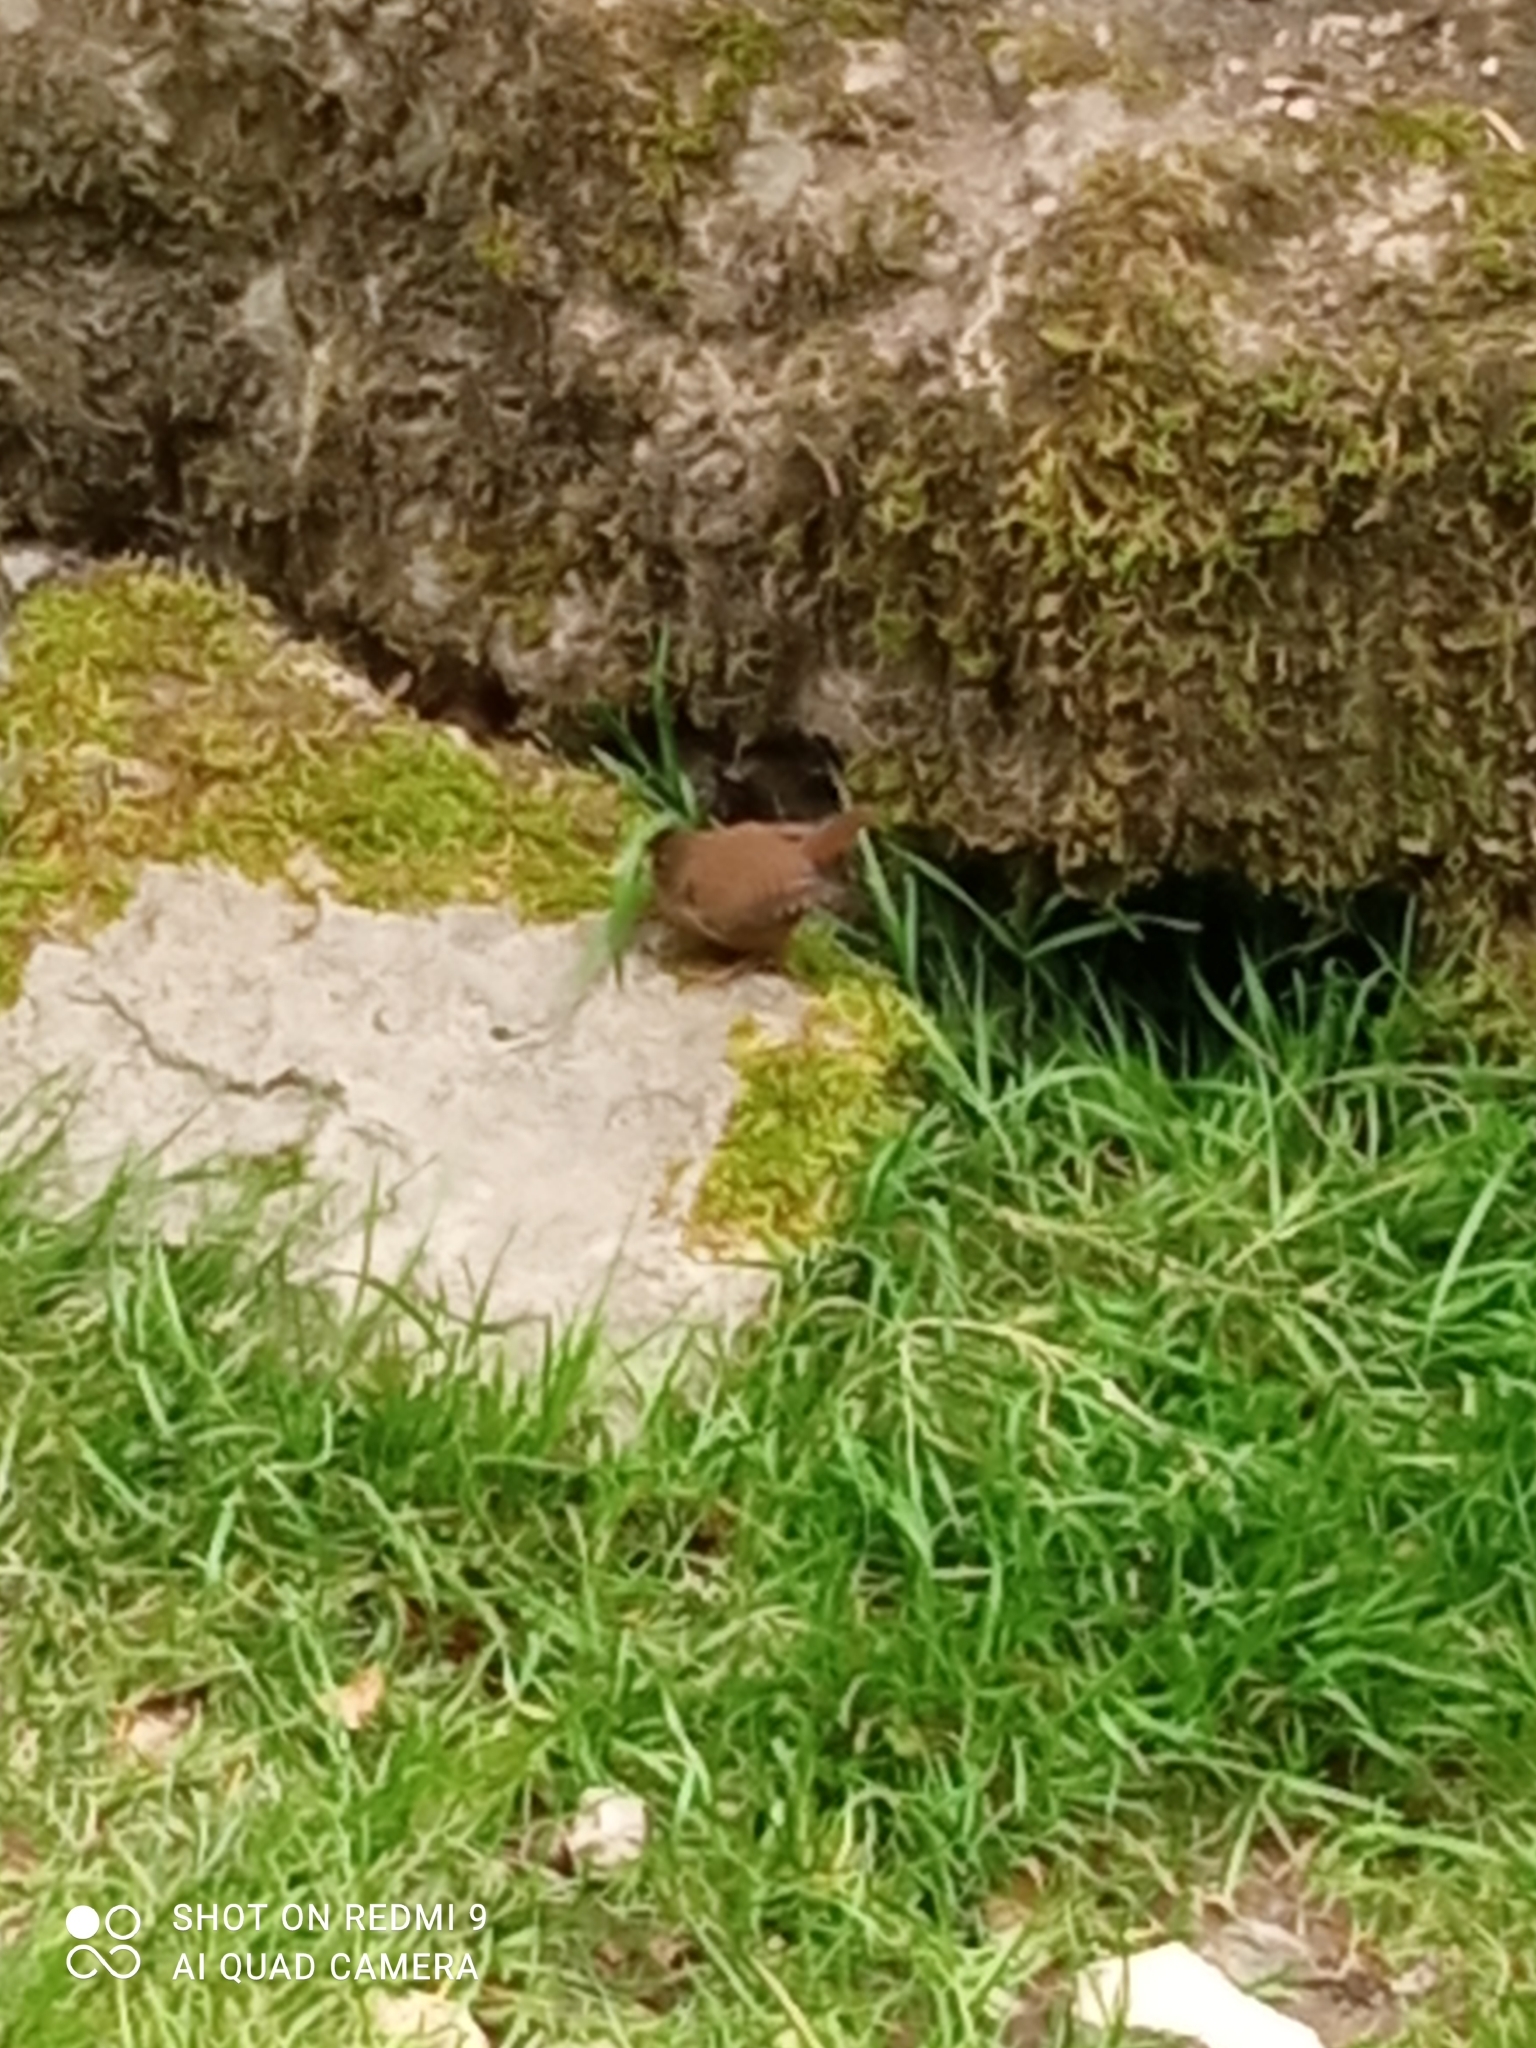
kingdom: Animalia
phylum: Chordata
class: Aves
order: Passeriformes
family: Troglodytidae
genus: Troglodytes
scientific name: Troglodytes troglodytes
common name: Eurasian wren
